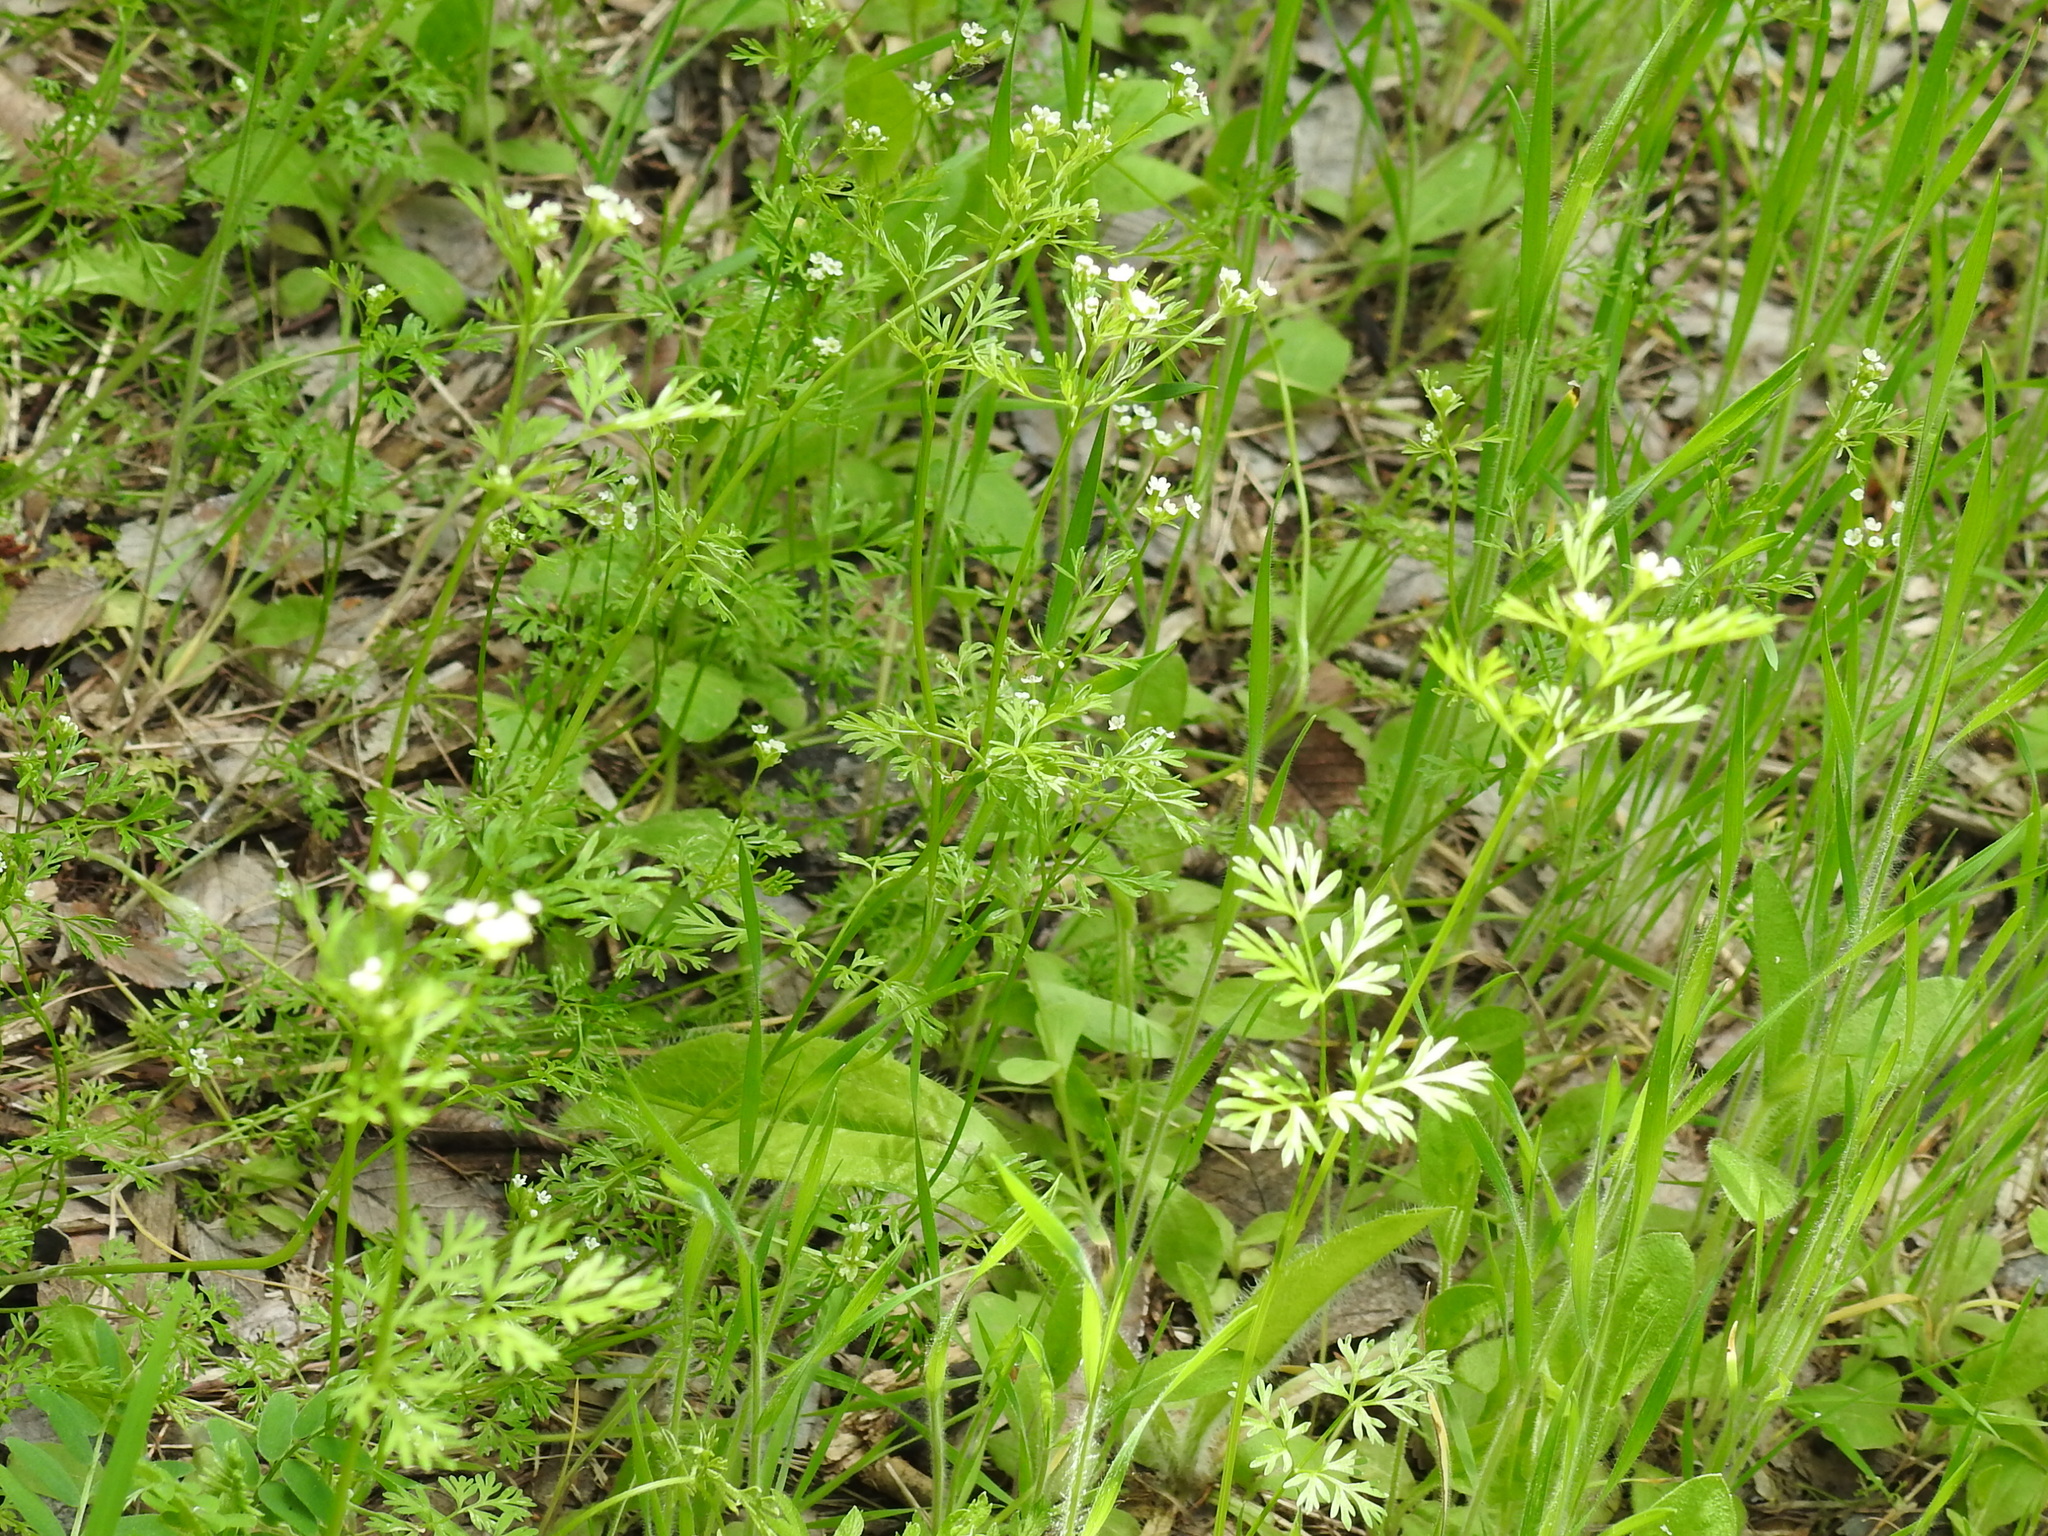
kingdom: Plantae
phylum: Tracheophyta
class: Magnoliopsida
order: Apiales
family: Apiaceae
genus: Chaerophyllum
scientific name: Chaerophyllum tainturieri
